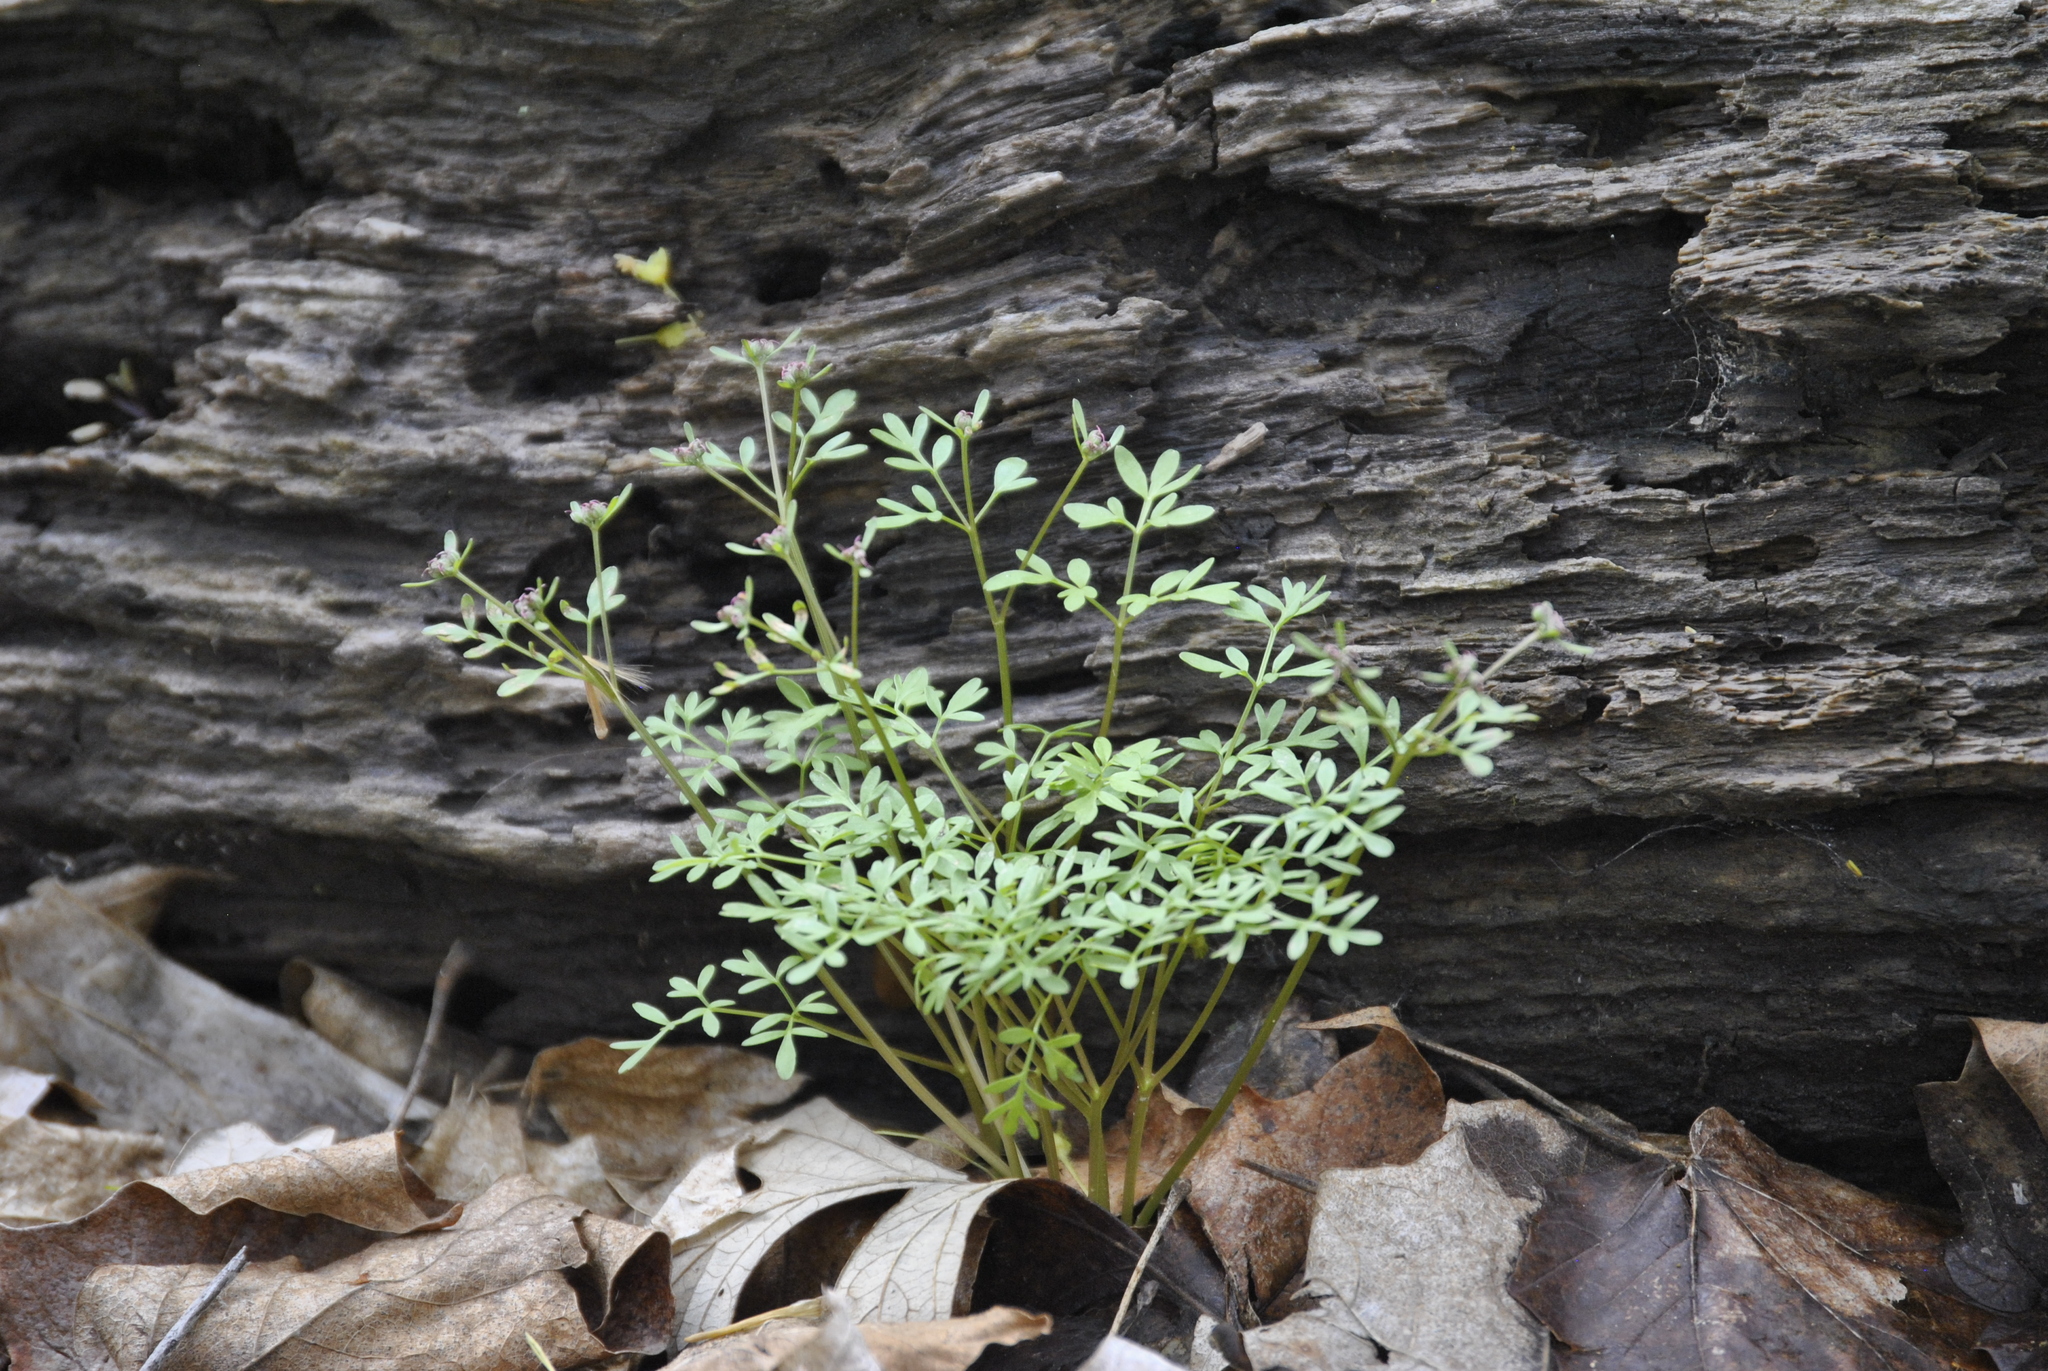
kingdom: Plantae
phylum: Tracheophyta
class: Magnoliopsida
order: Apiales
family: Apiaceae
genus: Erigenia
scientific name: Erigenia bulbosa
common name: Pepper-and-salt
